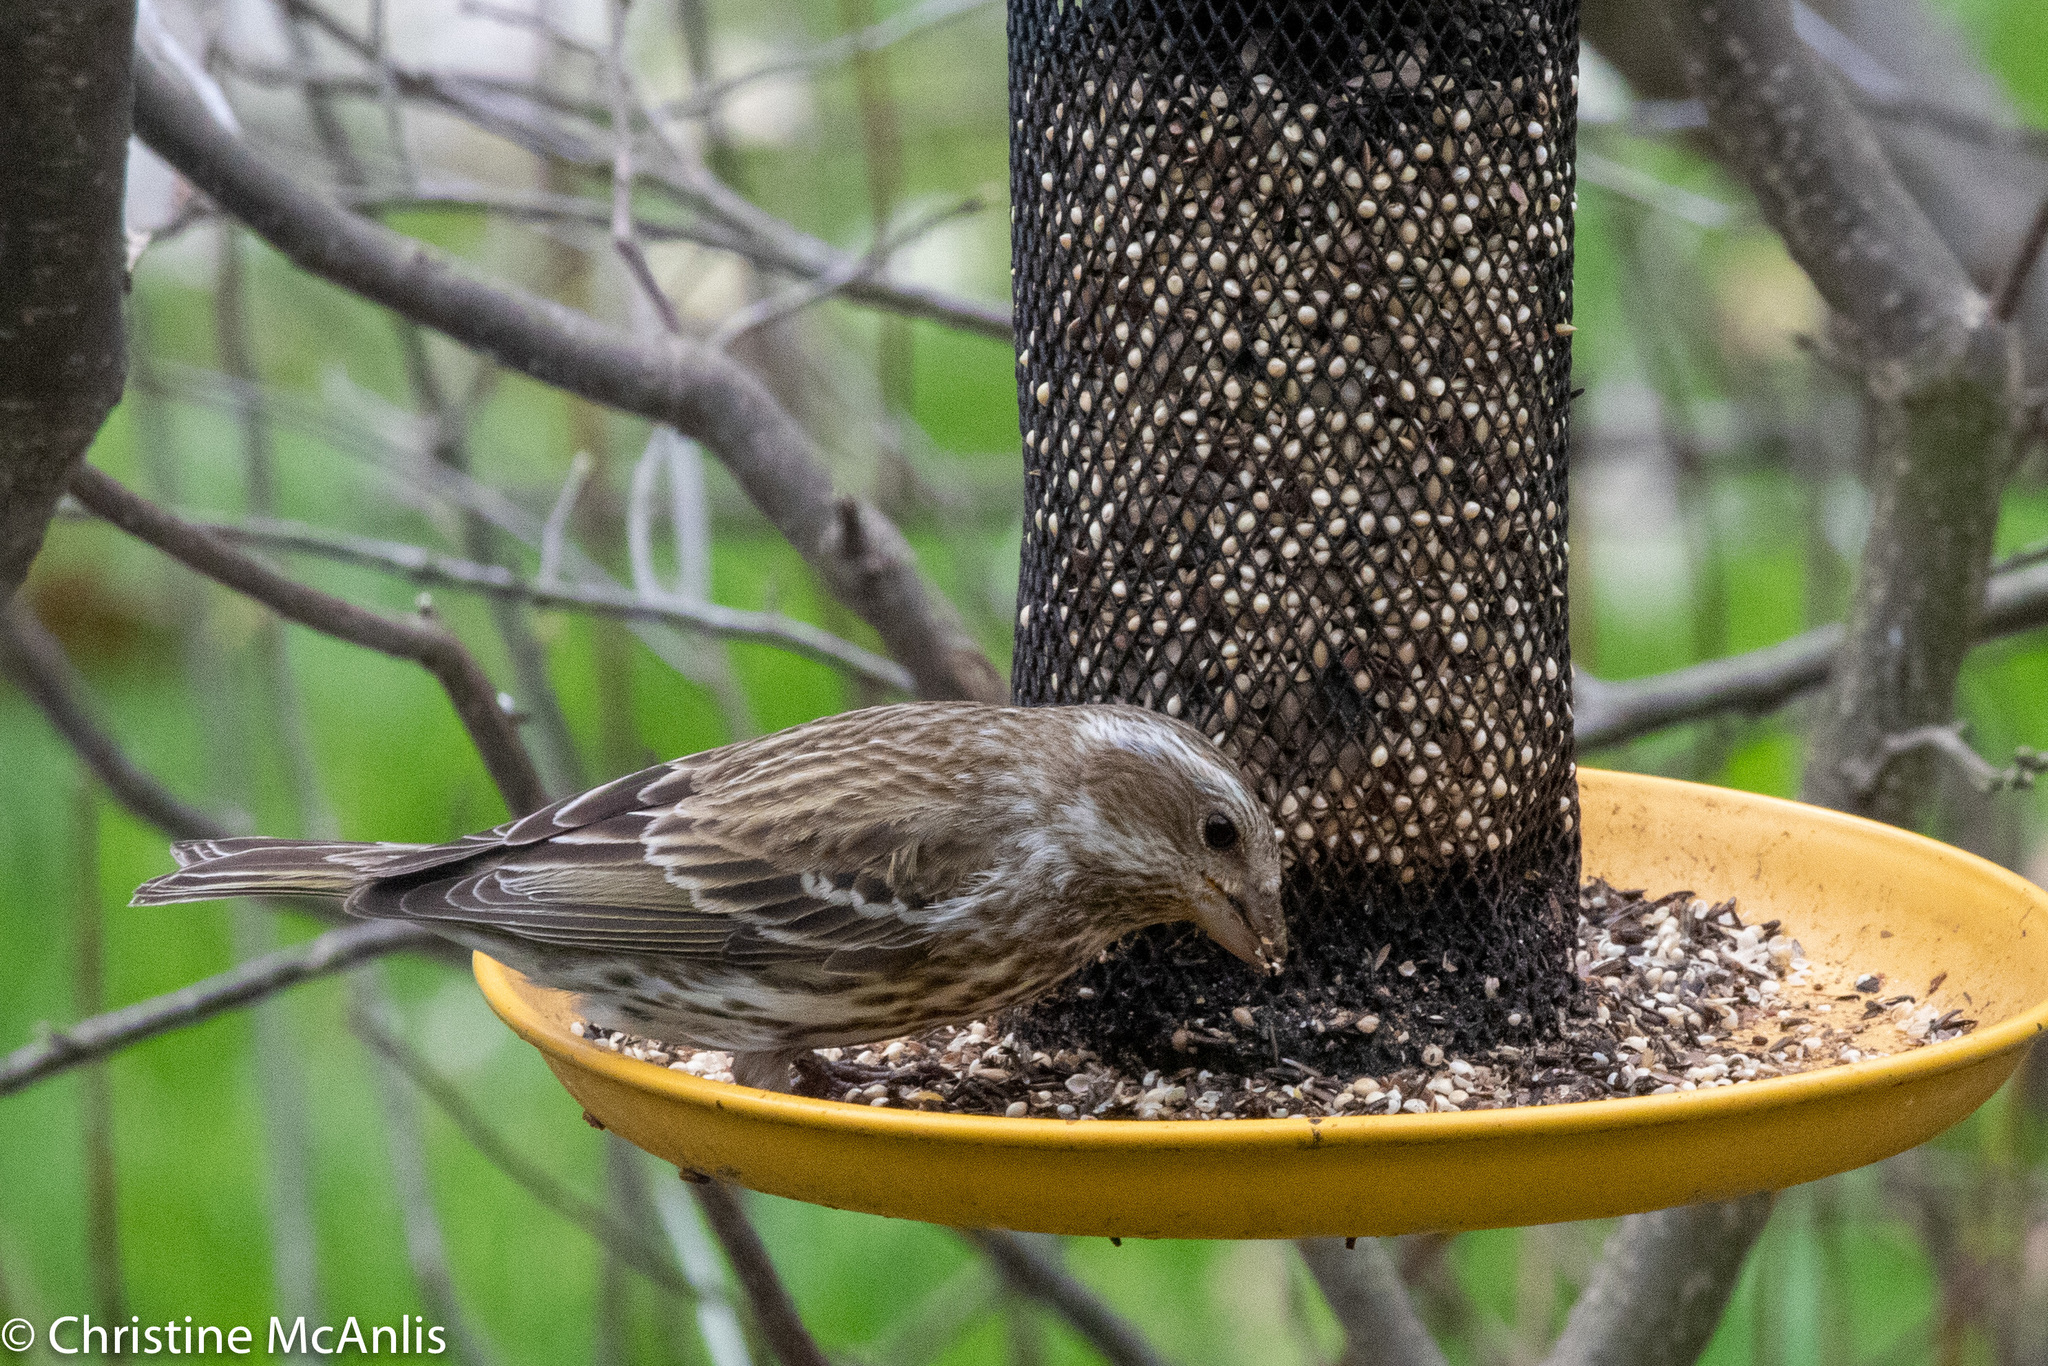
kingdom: Animalia
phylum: Chordata
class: Aves
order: Passeriformes
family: Fringillidae
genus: Haemorhous
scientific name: Haemorhous purpureus
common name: Purple finch
